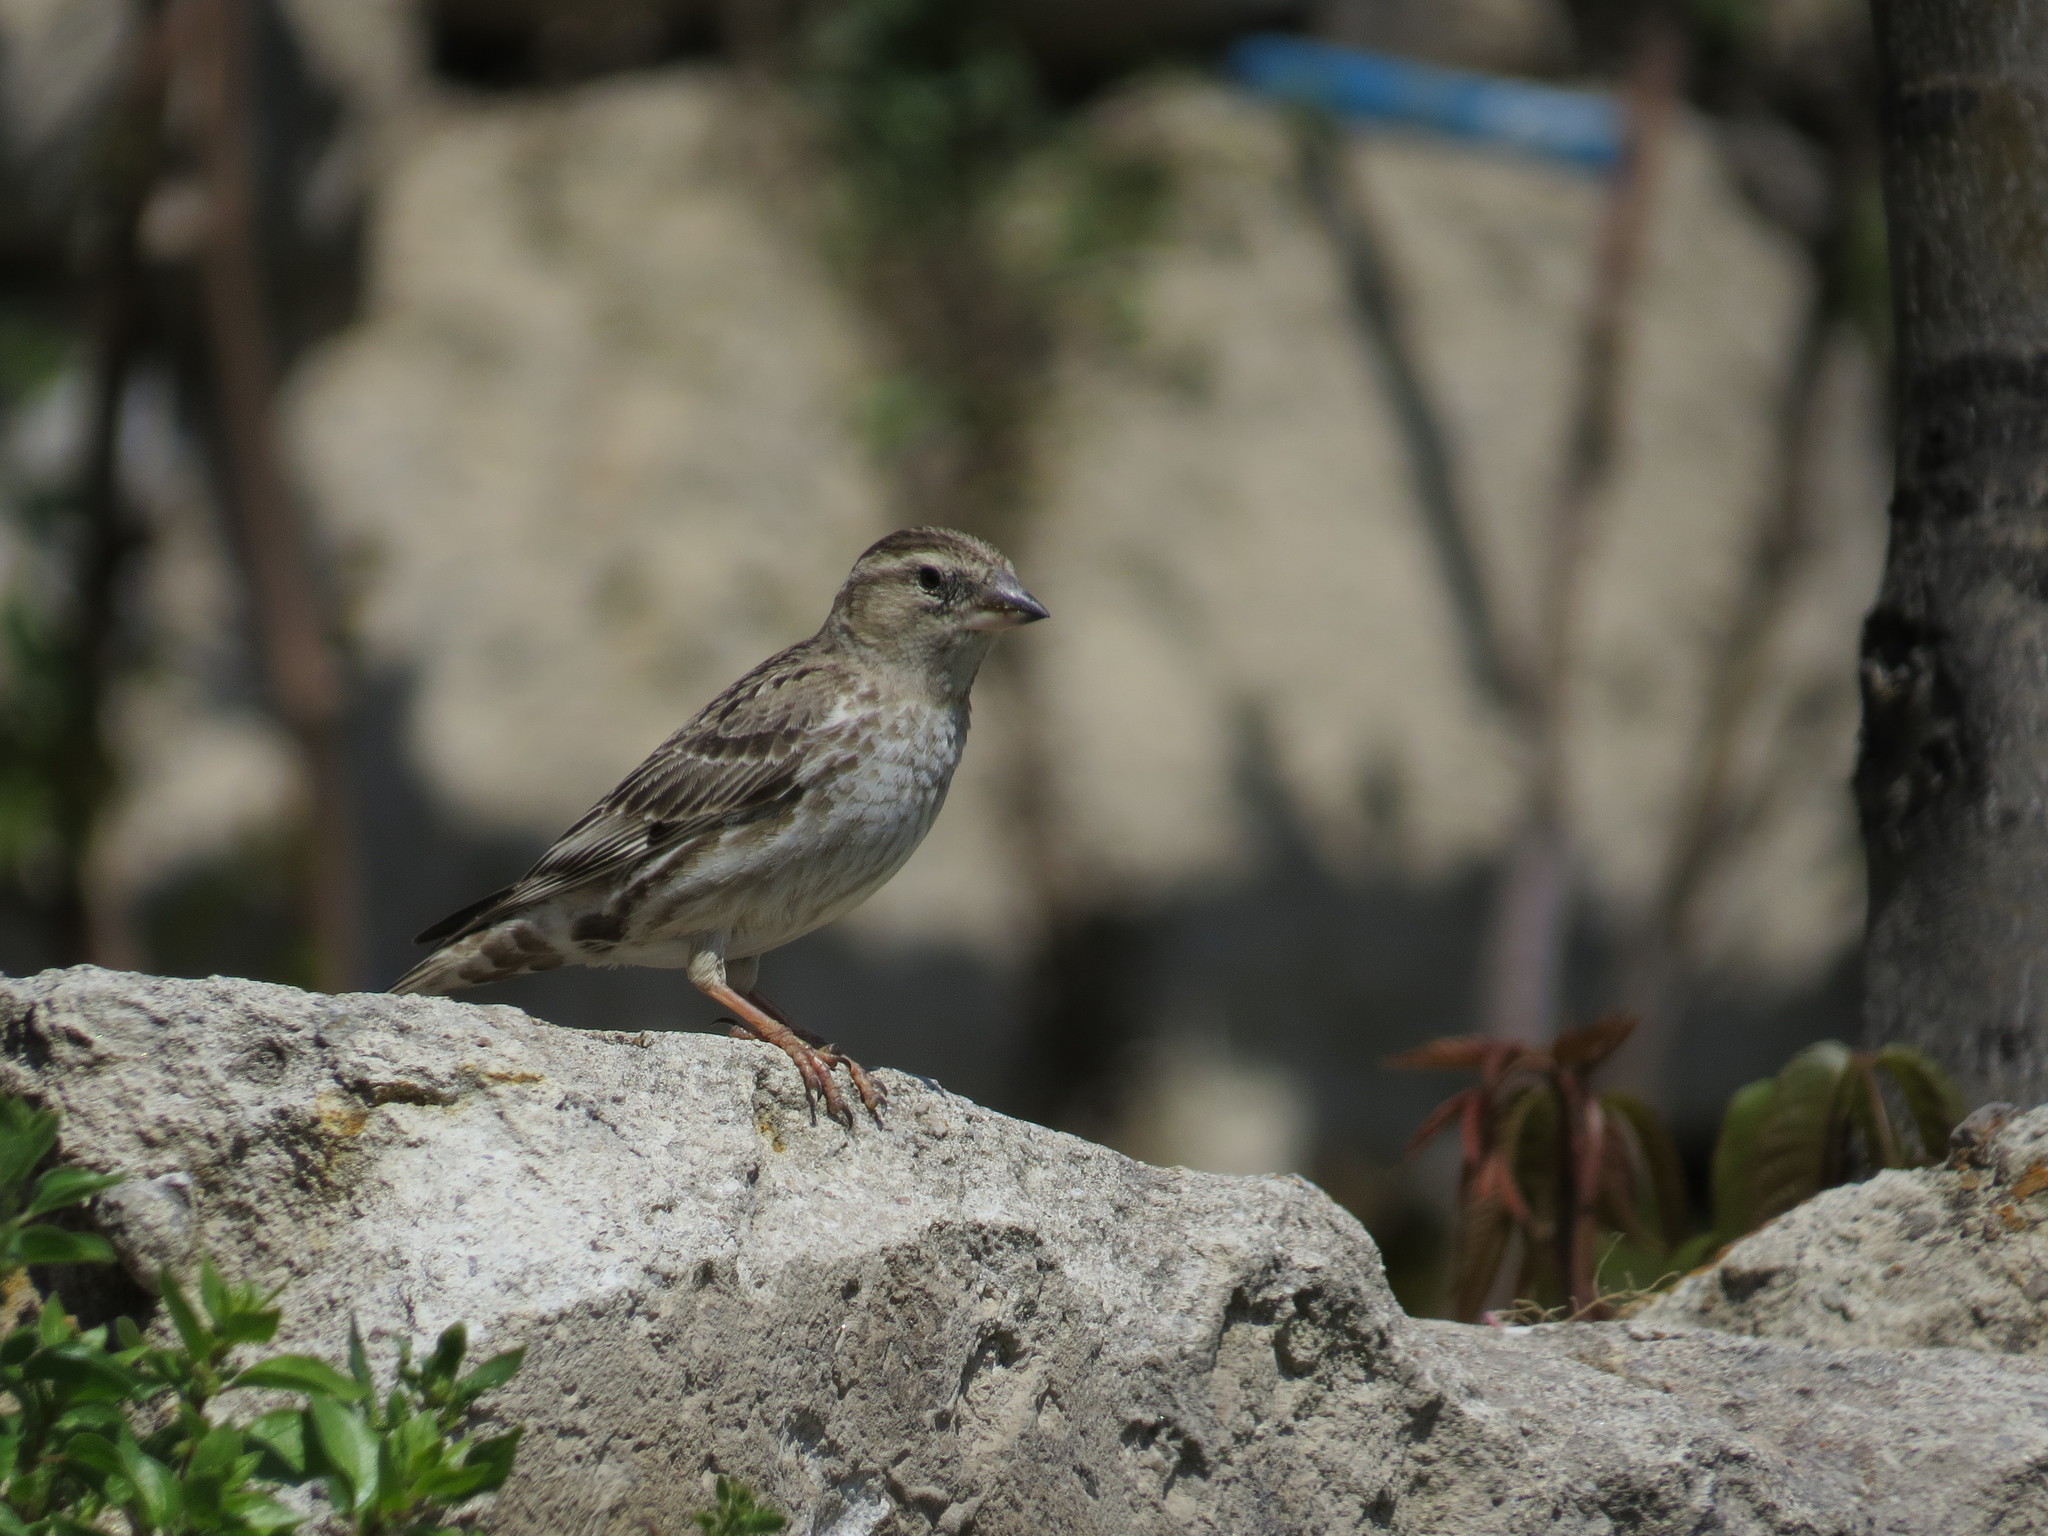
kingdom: Animalia
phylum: Chordata
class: Aves
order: Passeriformes
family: Passeridae
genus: Petronia
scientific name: Petronia petronia
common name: Rock sparrow
